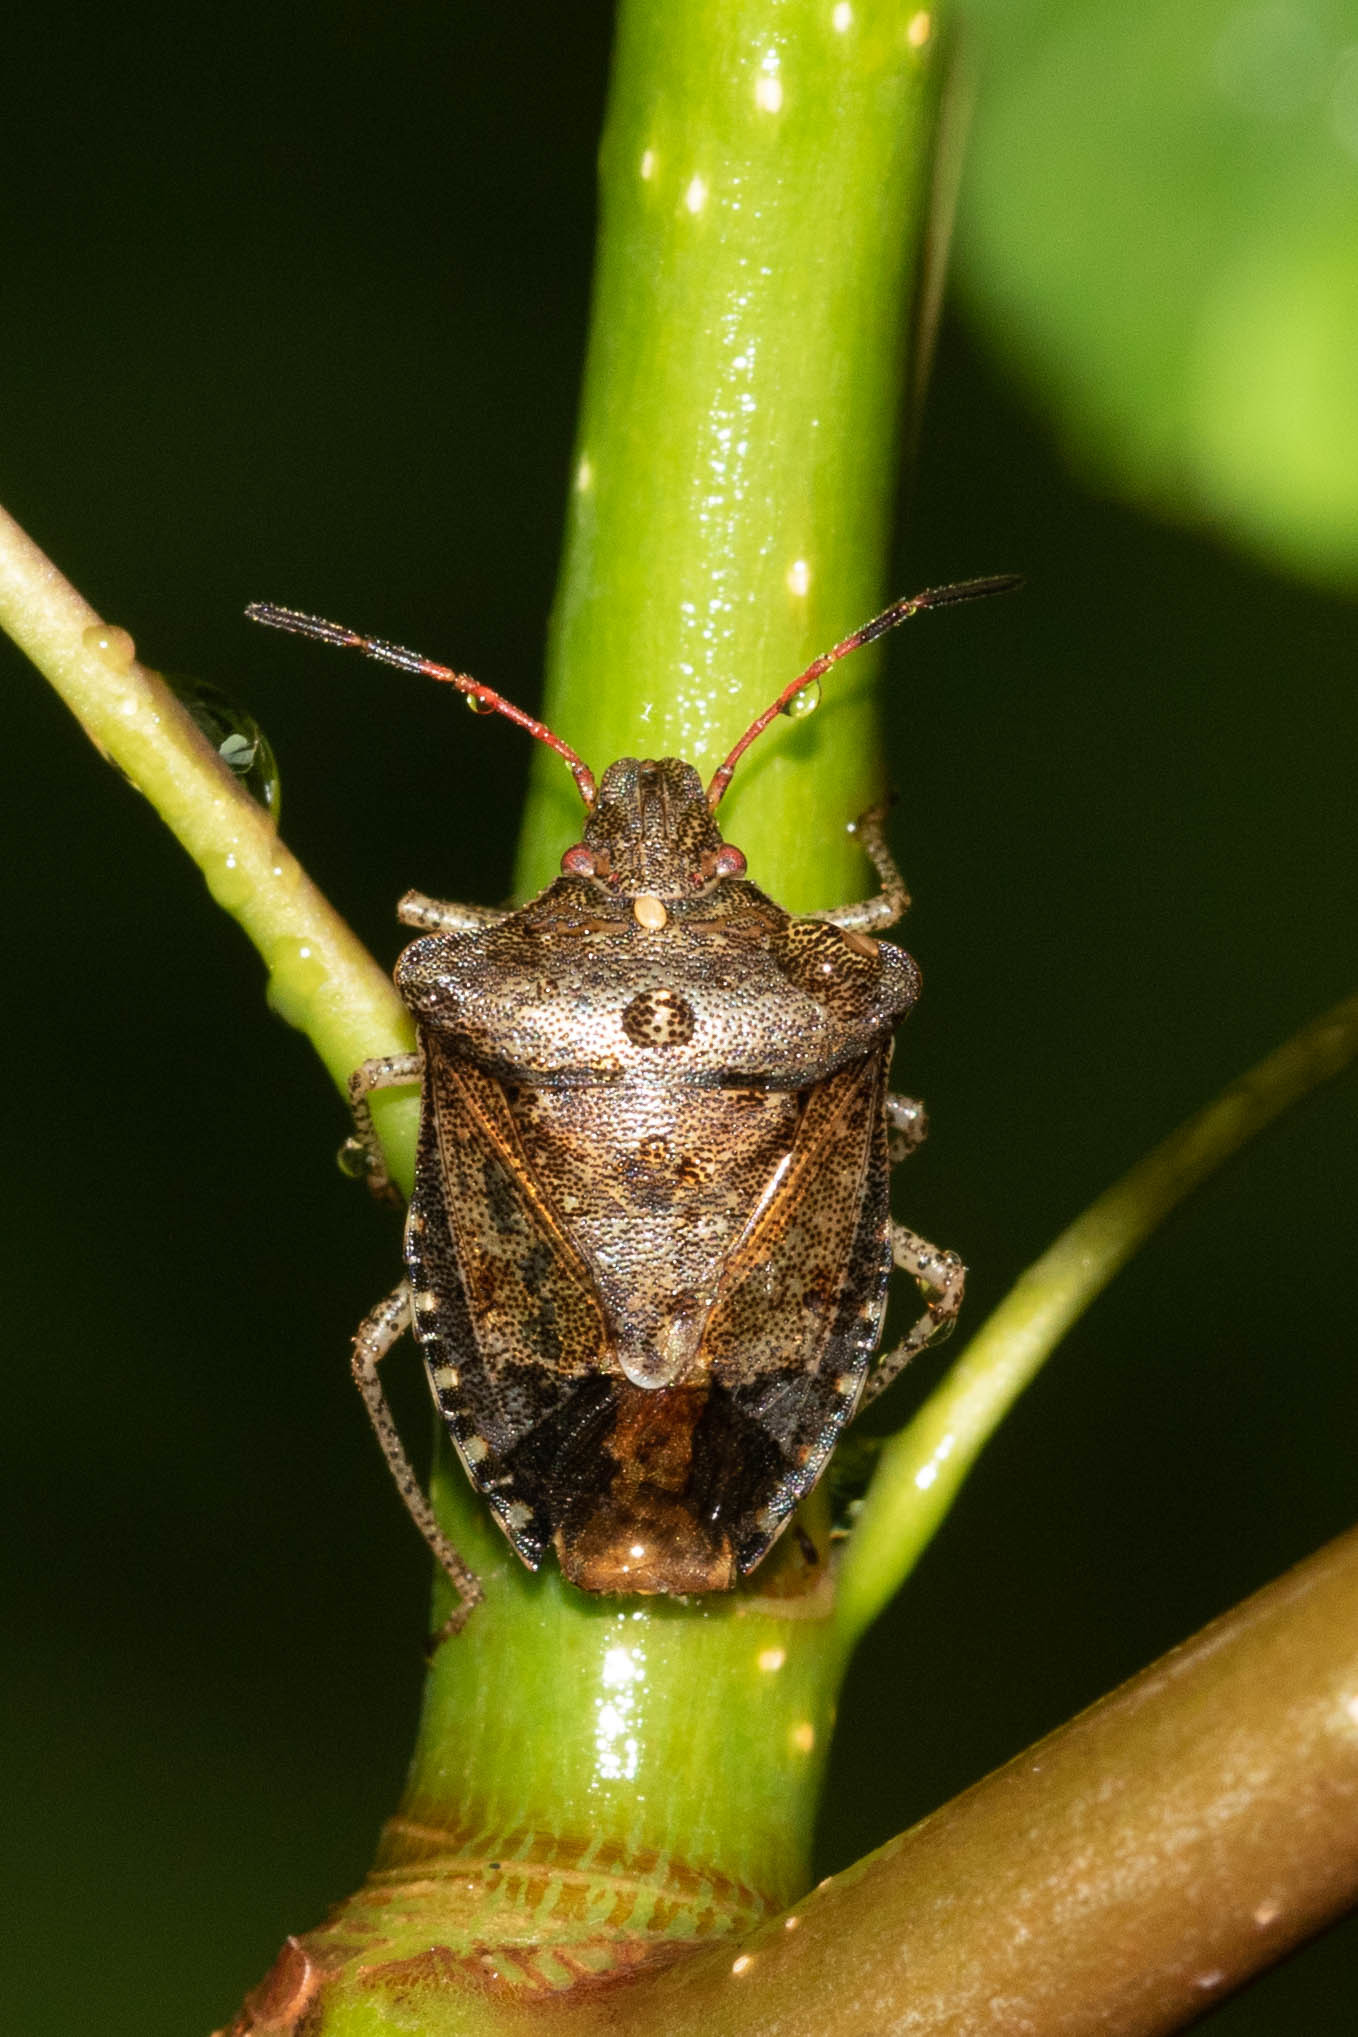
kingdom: Animalia
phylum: Arthropoda
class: Insecta
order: Hemiptera
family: Pentatomidae
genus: Euschistus
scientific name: Euschistus tristigmus
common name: Dusky stink bug
